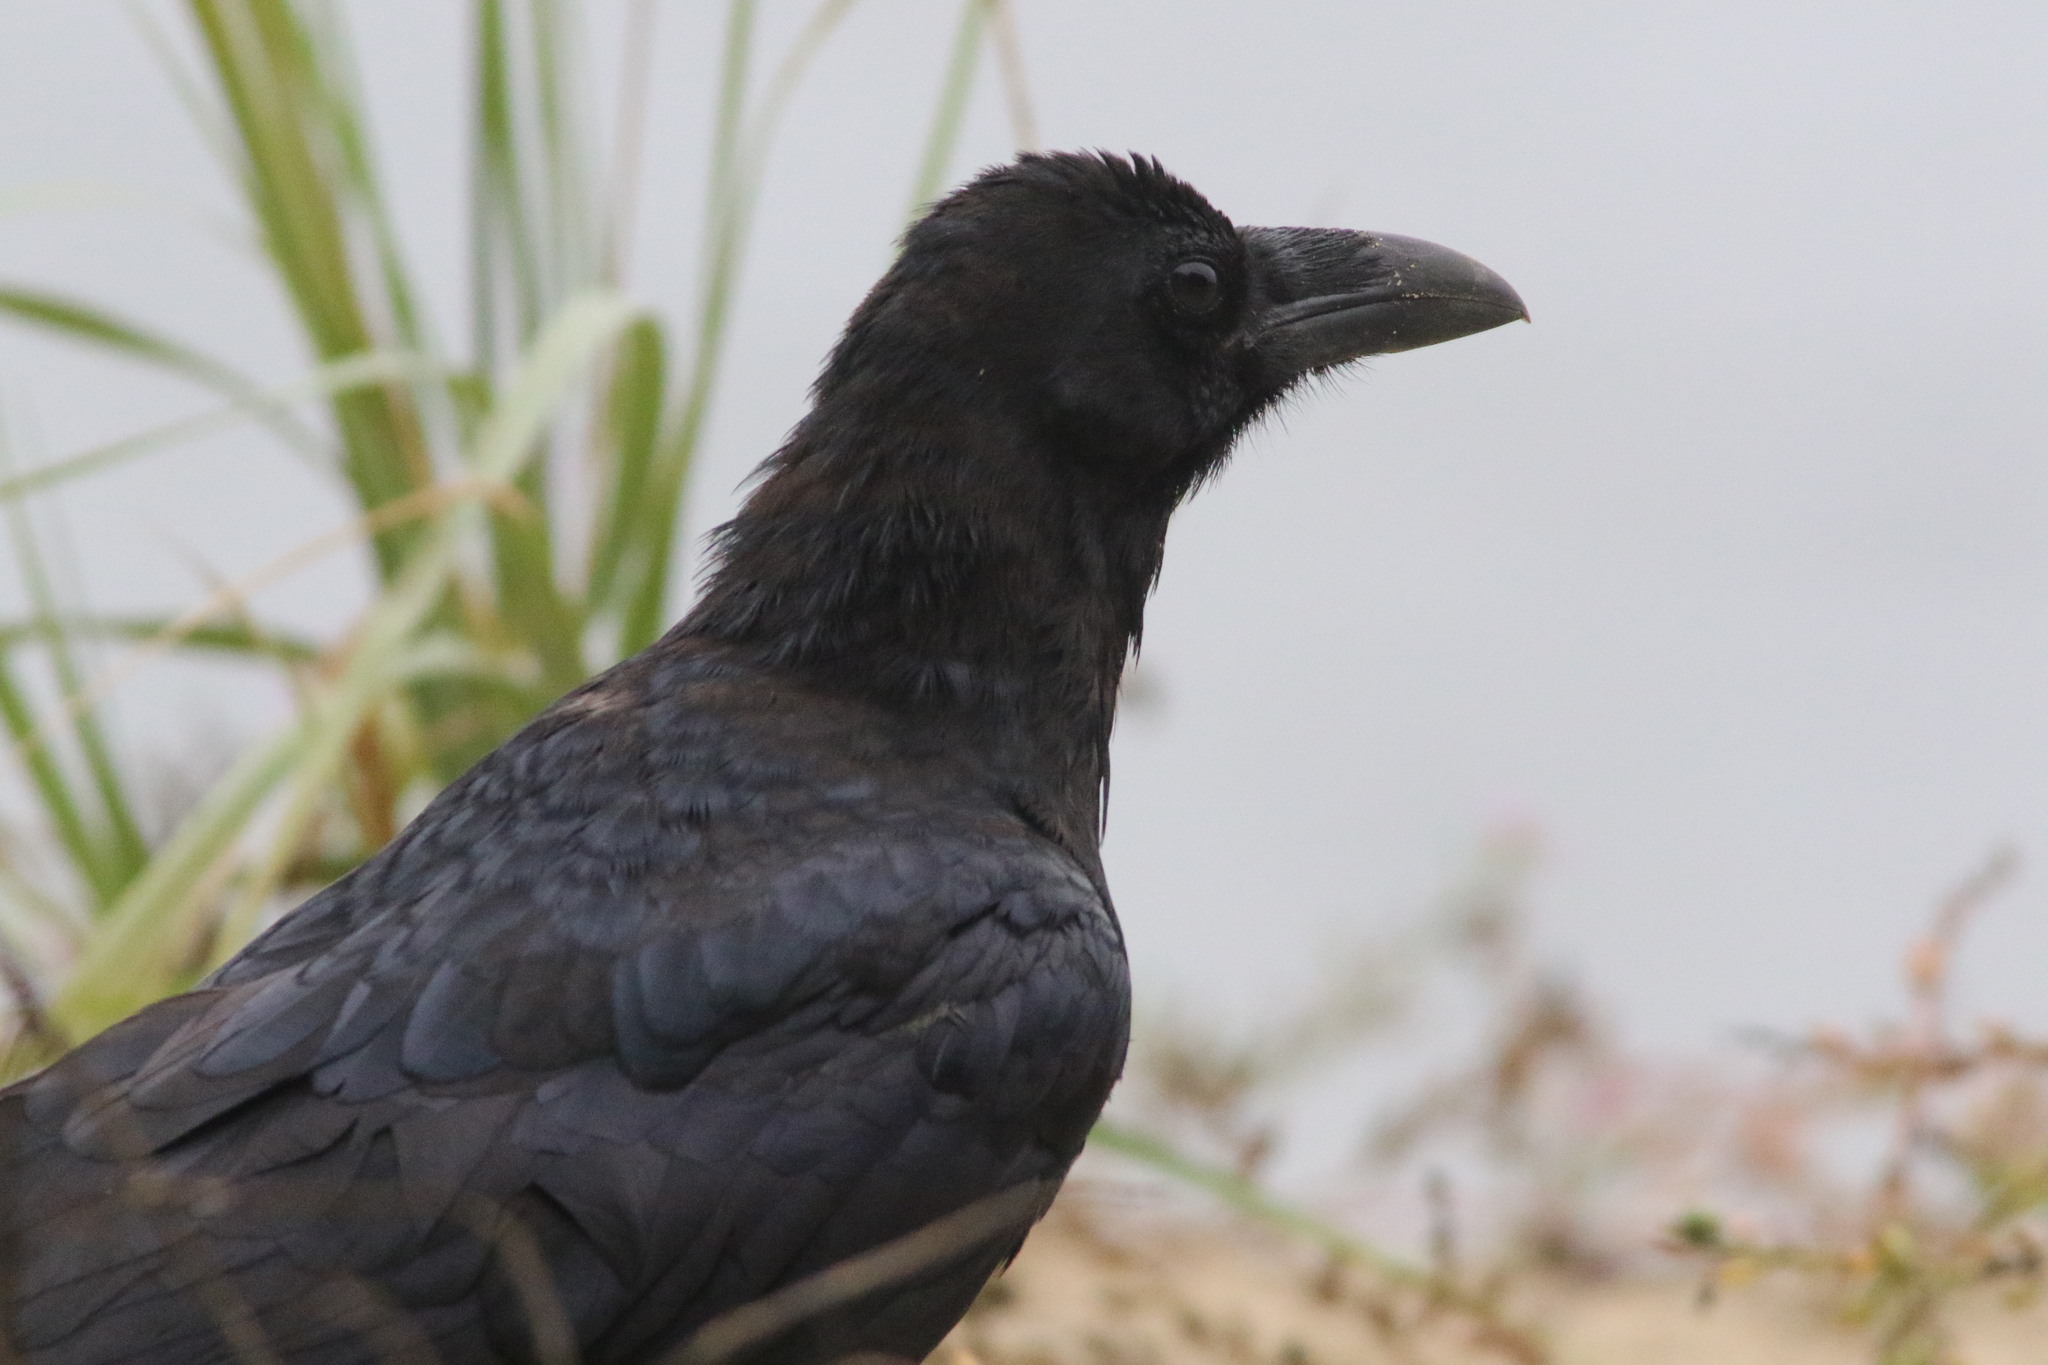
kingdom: Animalia
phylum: Chordata
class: Aves
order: Passeriformes
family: Corvidae
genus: Corvus
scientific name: Corvus corax
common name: Common raven
